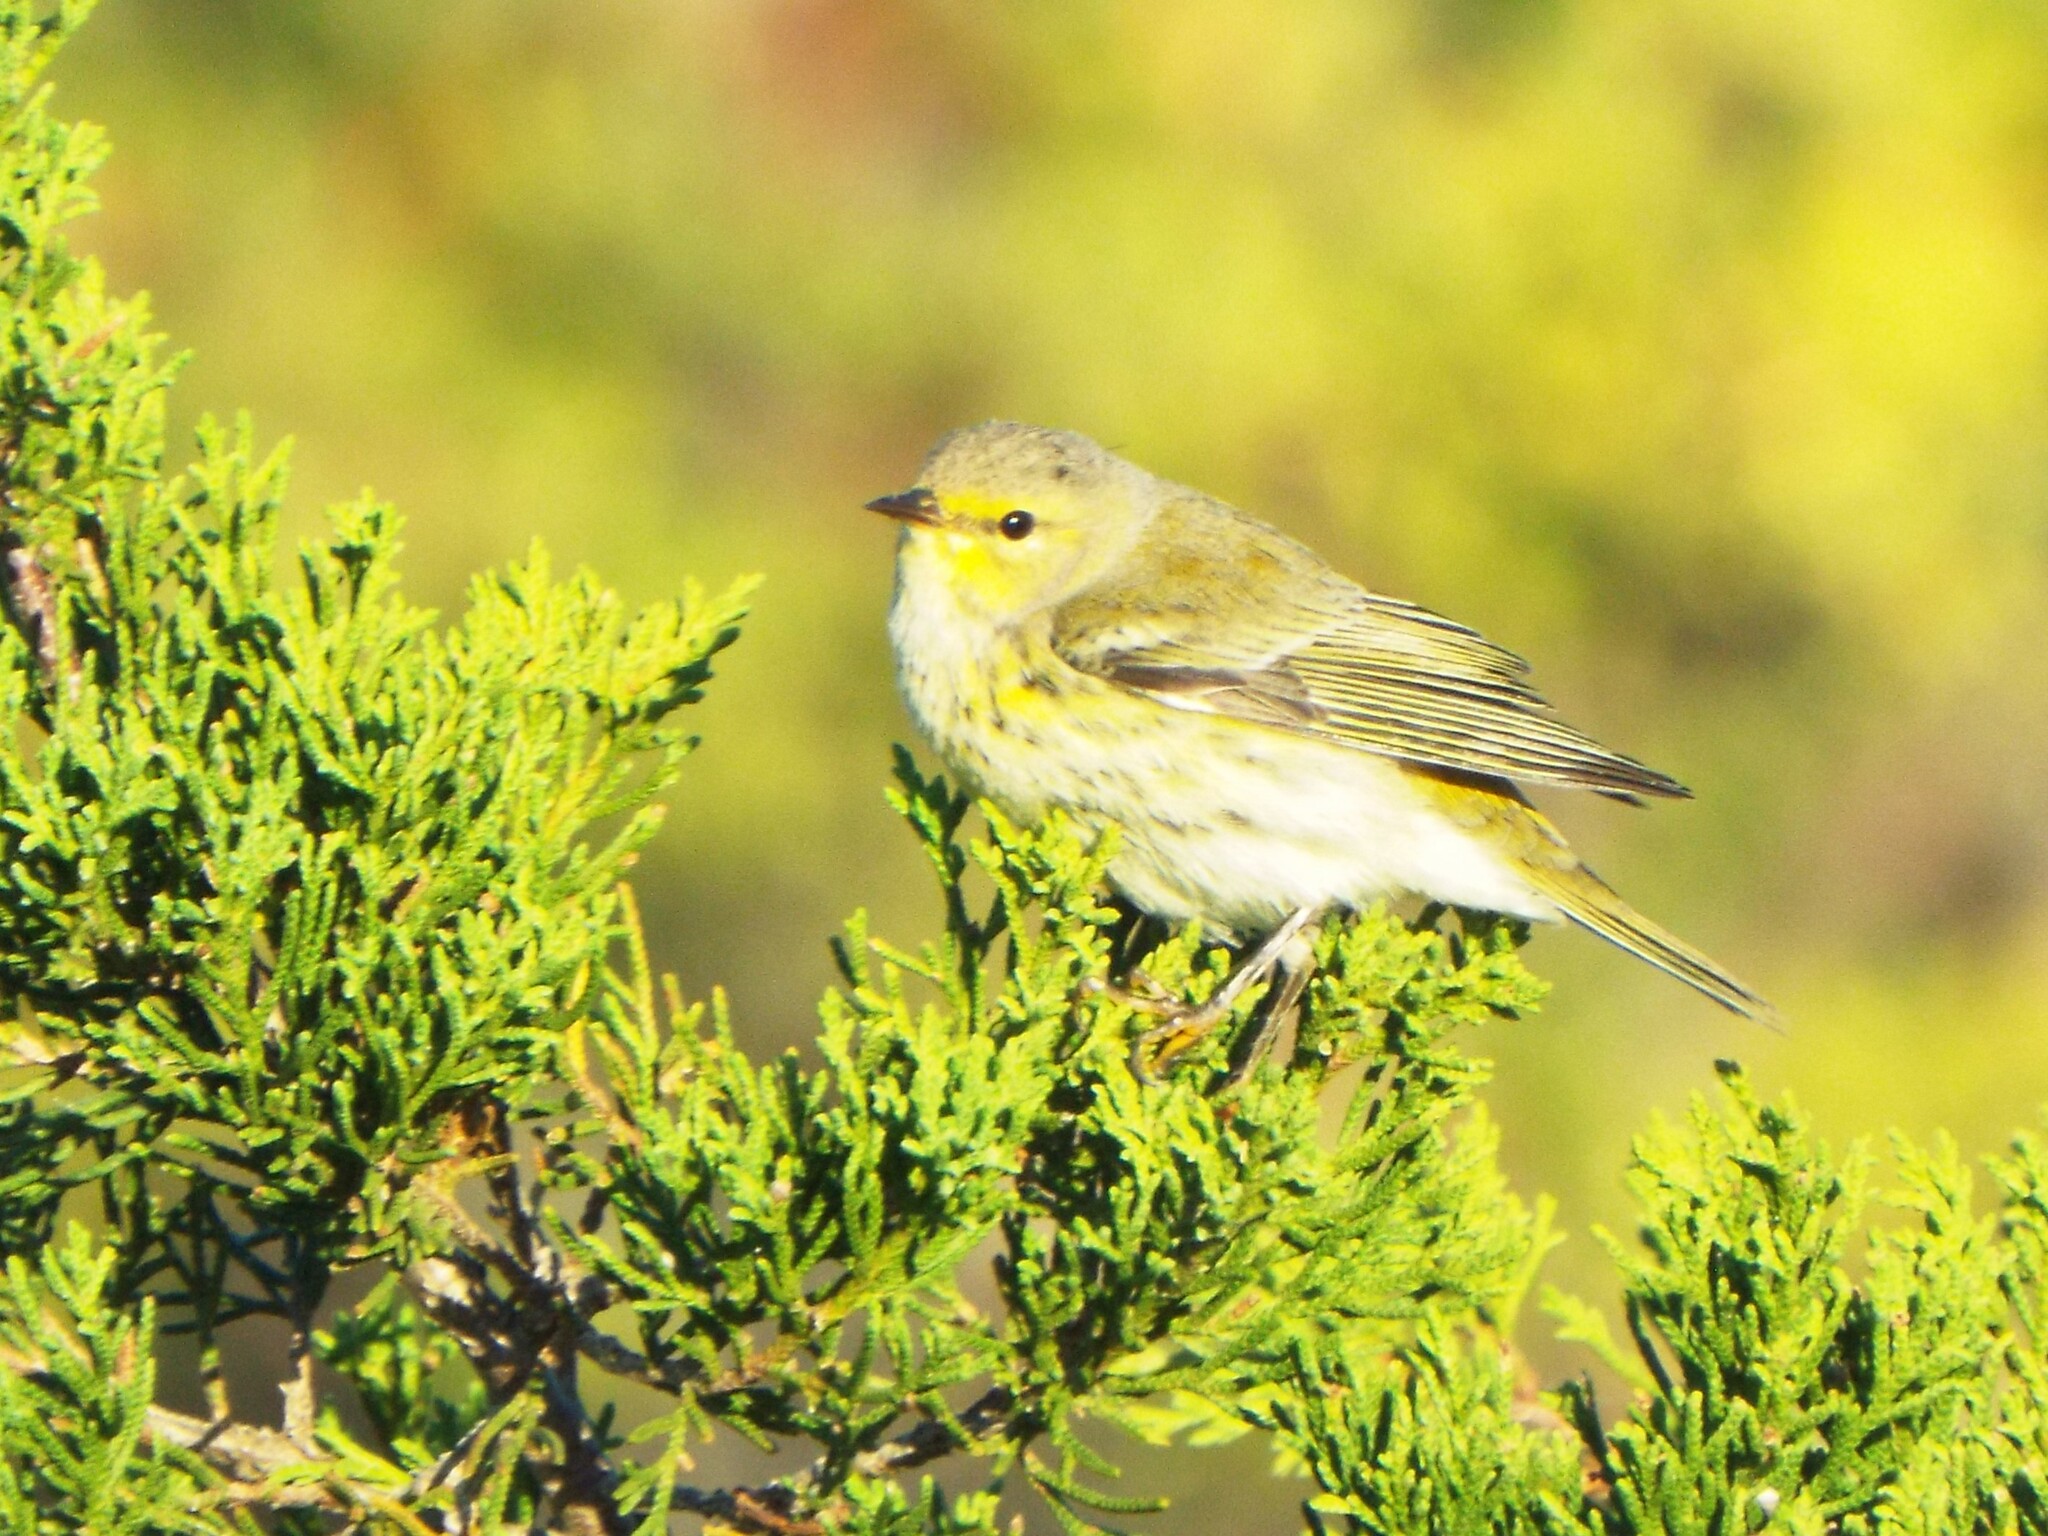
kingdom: Animalia
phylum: Chordata
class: Aves
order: Passeriformes
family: Parulidae
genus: Setophaga
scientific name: Setophaga tigrina
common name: Cape may warbler
